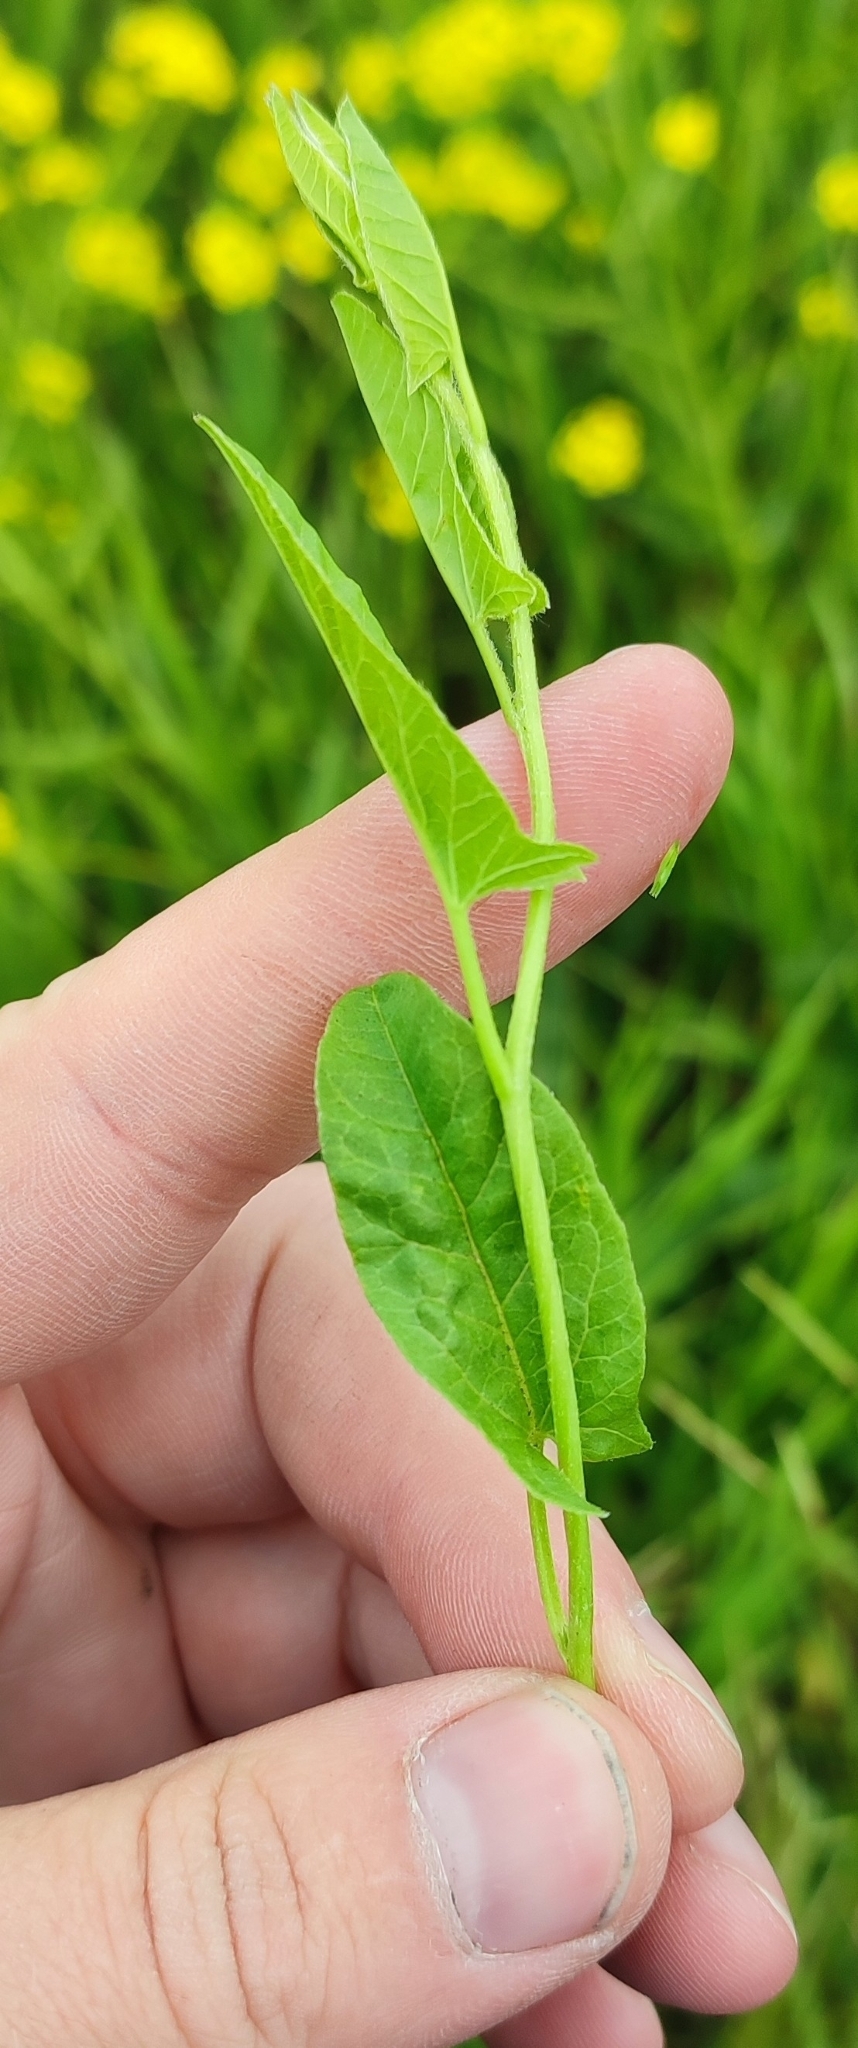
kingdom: Plantae
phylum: Tracheophyta
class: Magnoliopsida
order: Solanales
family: Convolvulaceae
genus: Convolvulus
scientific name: Convolvulus arvensis
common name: Field bindweed
